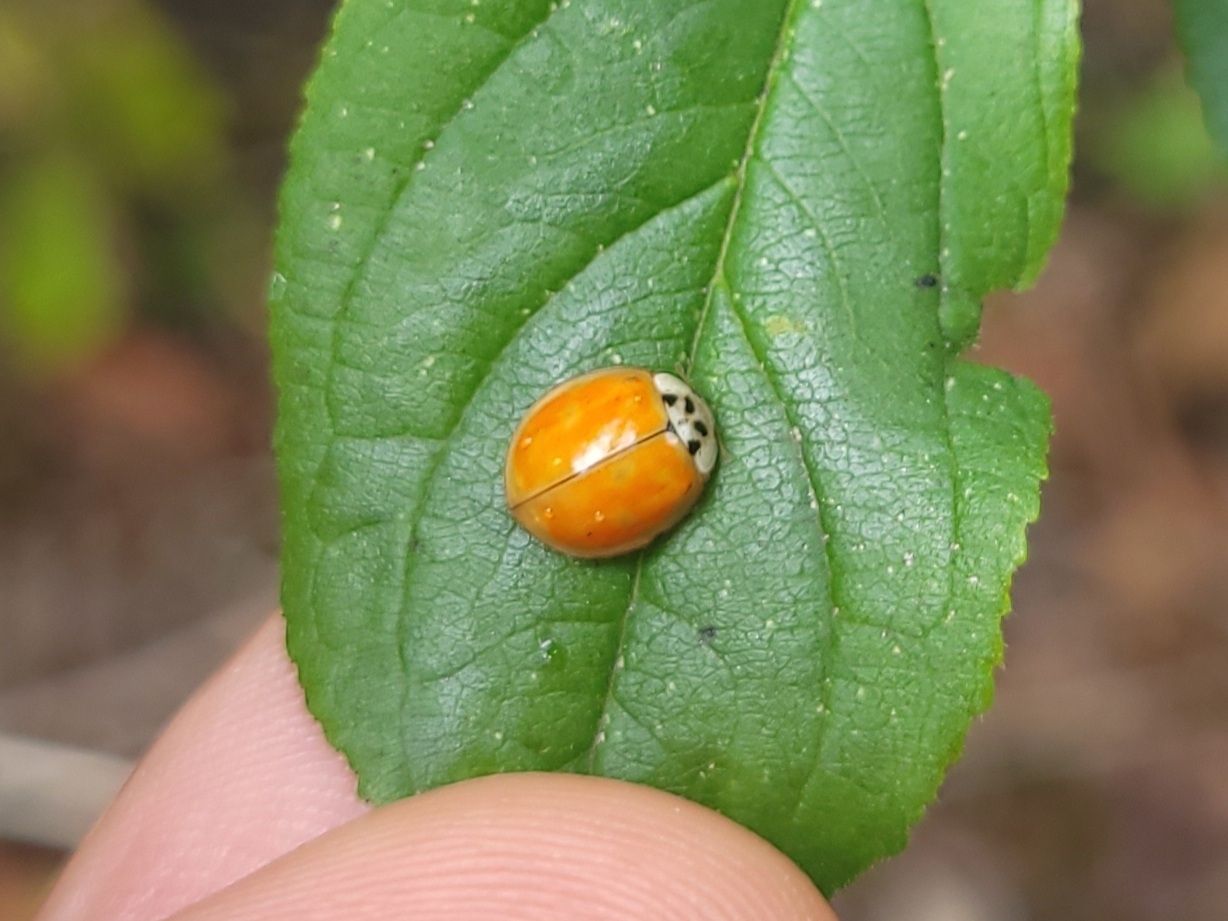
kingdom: Animalia
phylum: Arthropoda
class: Insecta
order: Coleoptera
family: Coccinellidae
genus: Harmonia
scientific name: Harmonia axyridis
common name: Harlequin ladybird
